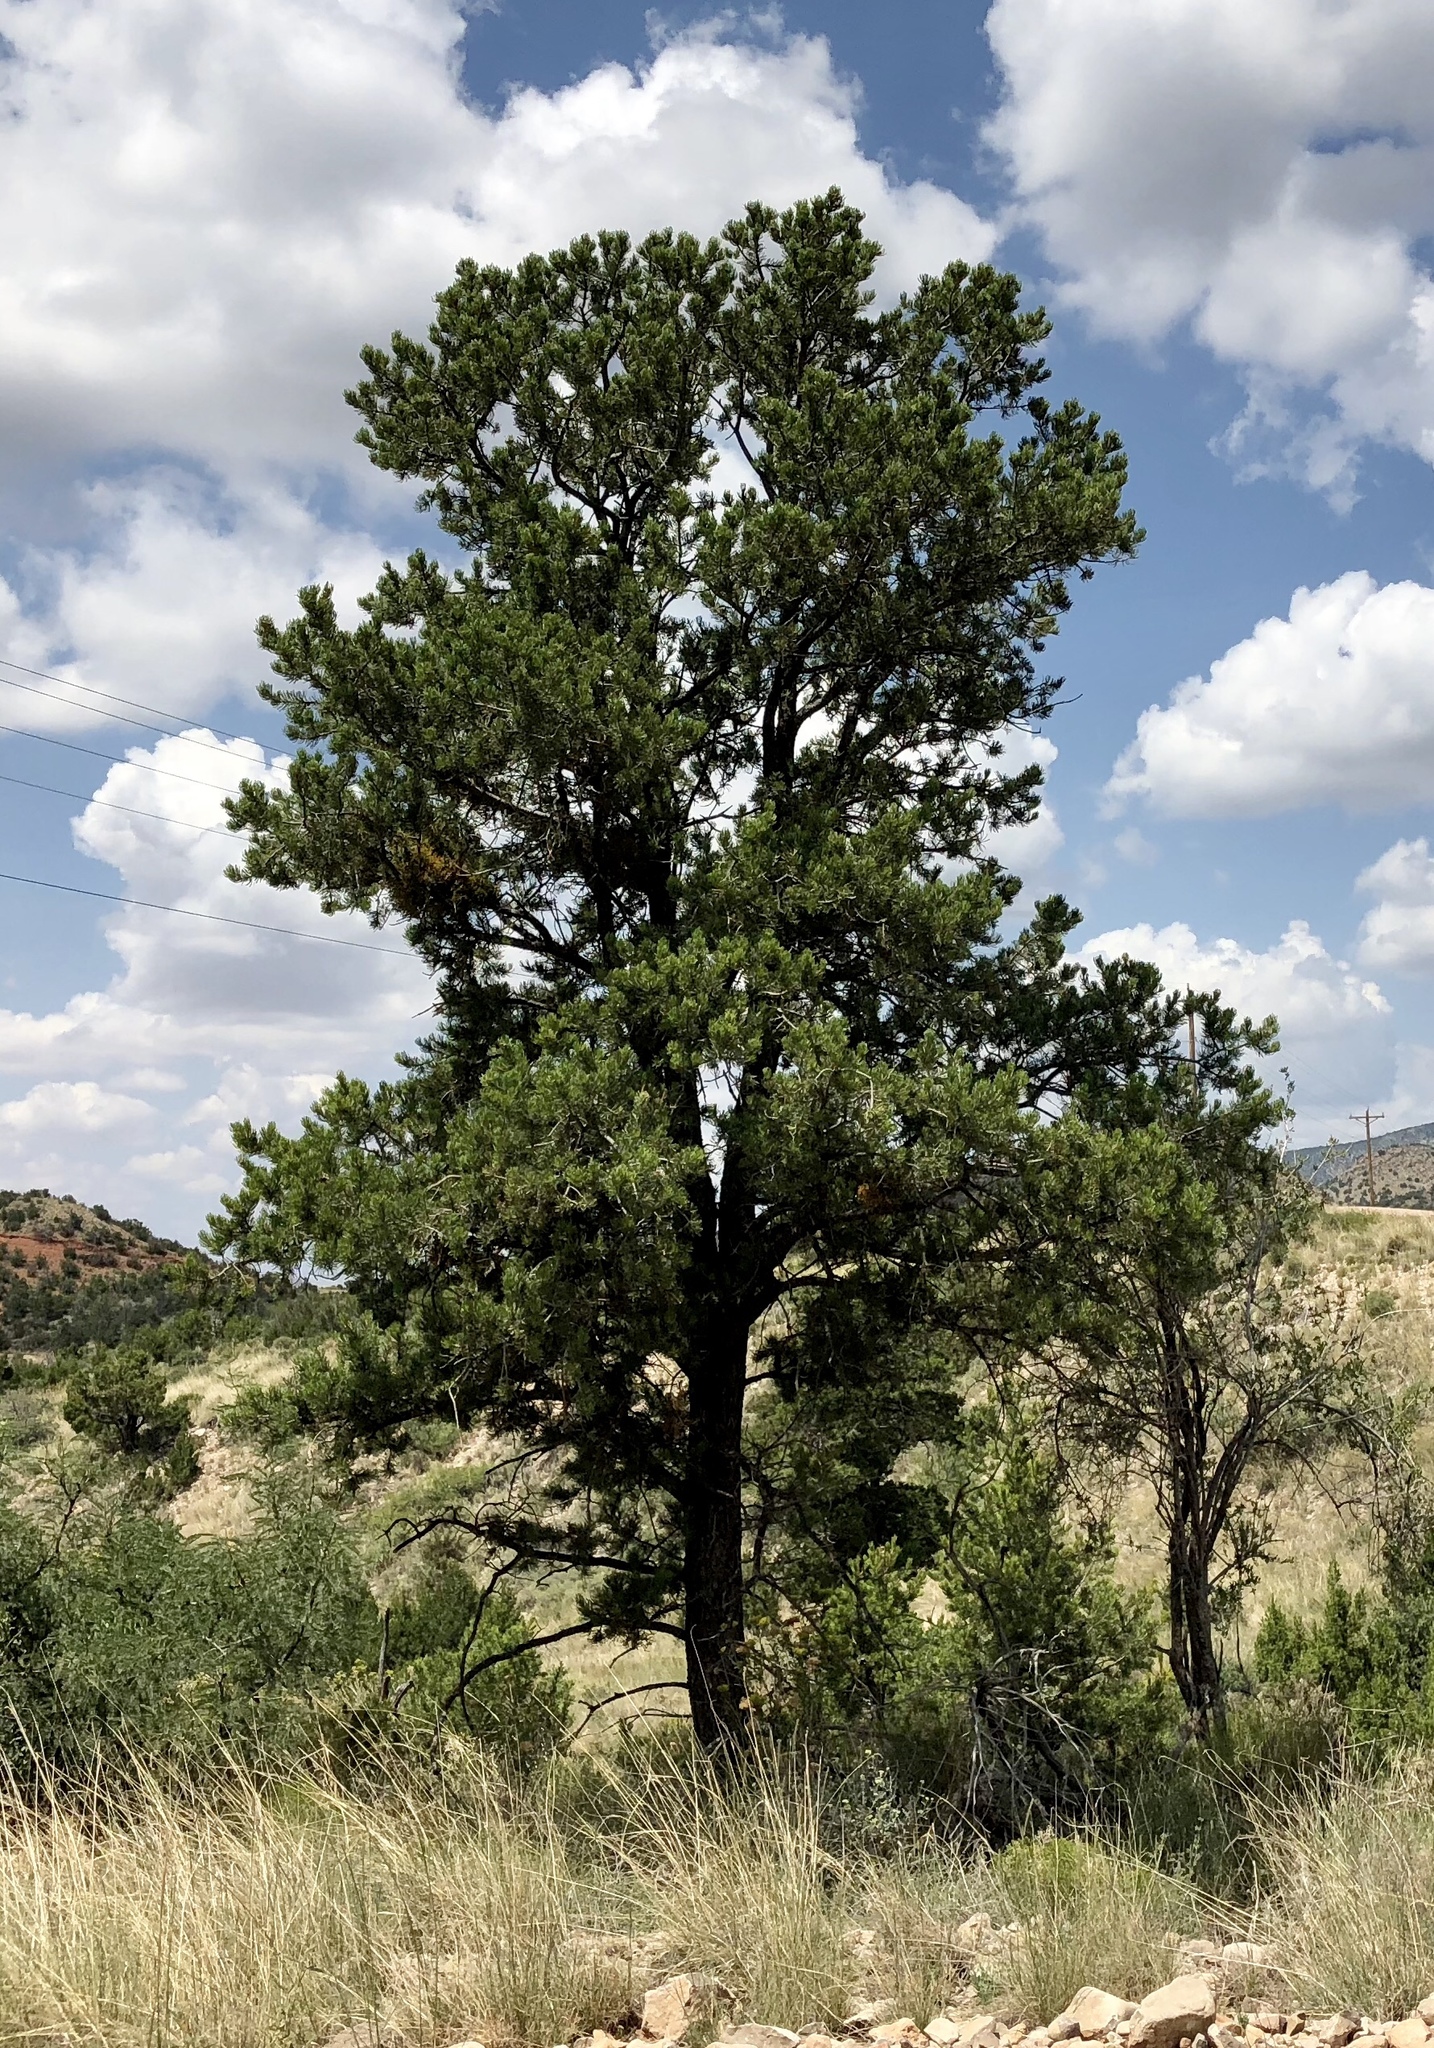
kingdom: Plantae
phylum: Tracheophyta
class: Pinopsida
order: Pinales
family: Pinaceae
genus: Pinus
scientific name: Pinus edulis
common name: Colorado pinyon
